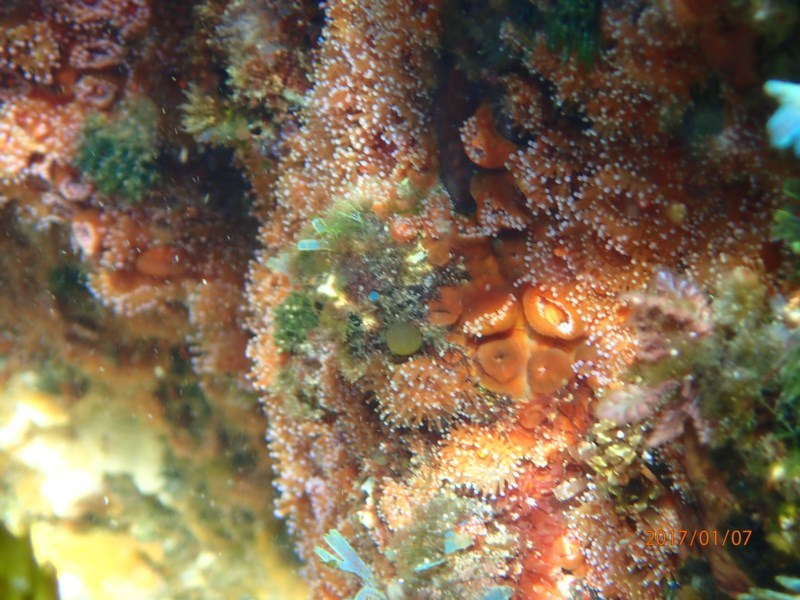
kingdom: Animalia
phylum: Cnidaria
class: Anthozoa
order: Corallimorpharia
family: Corallimorphidae
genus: Corynactis
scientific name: Corynactis australis
